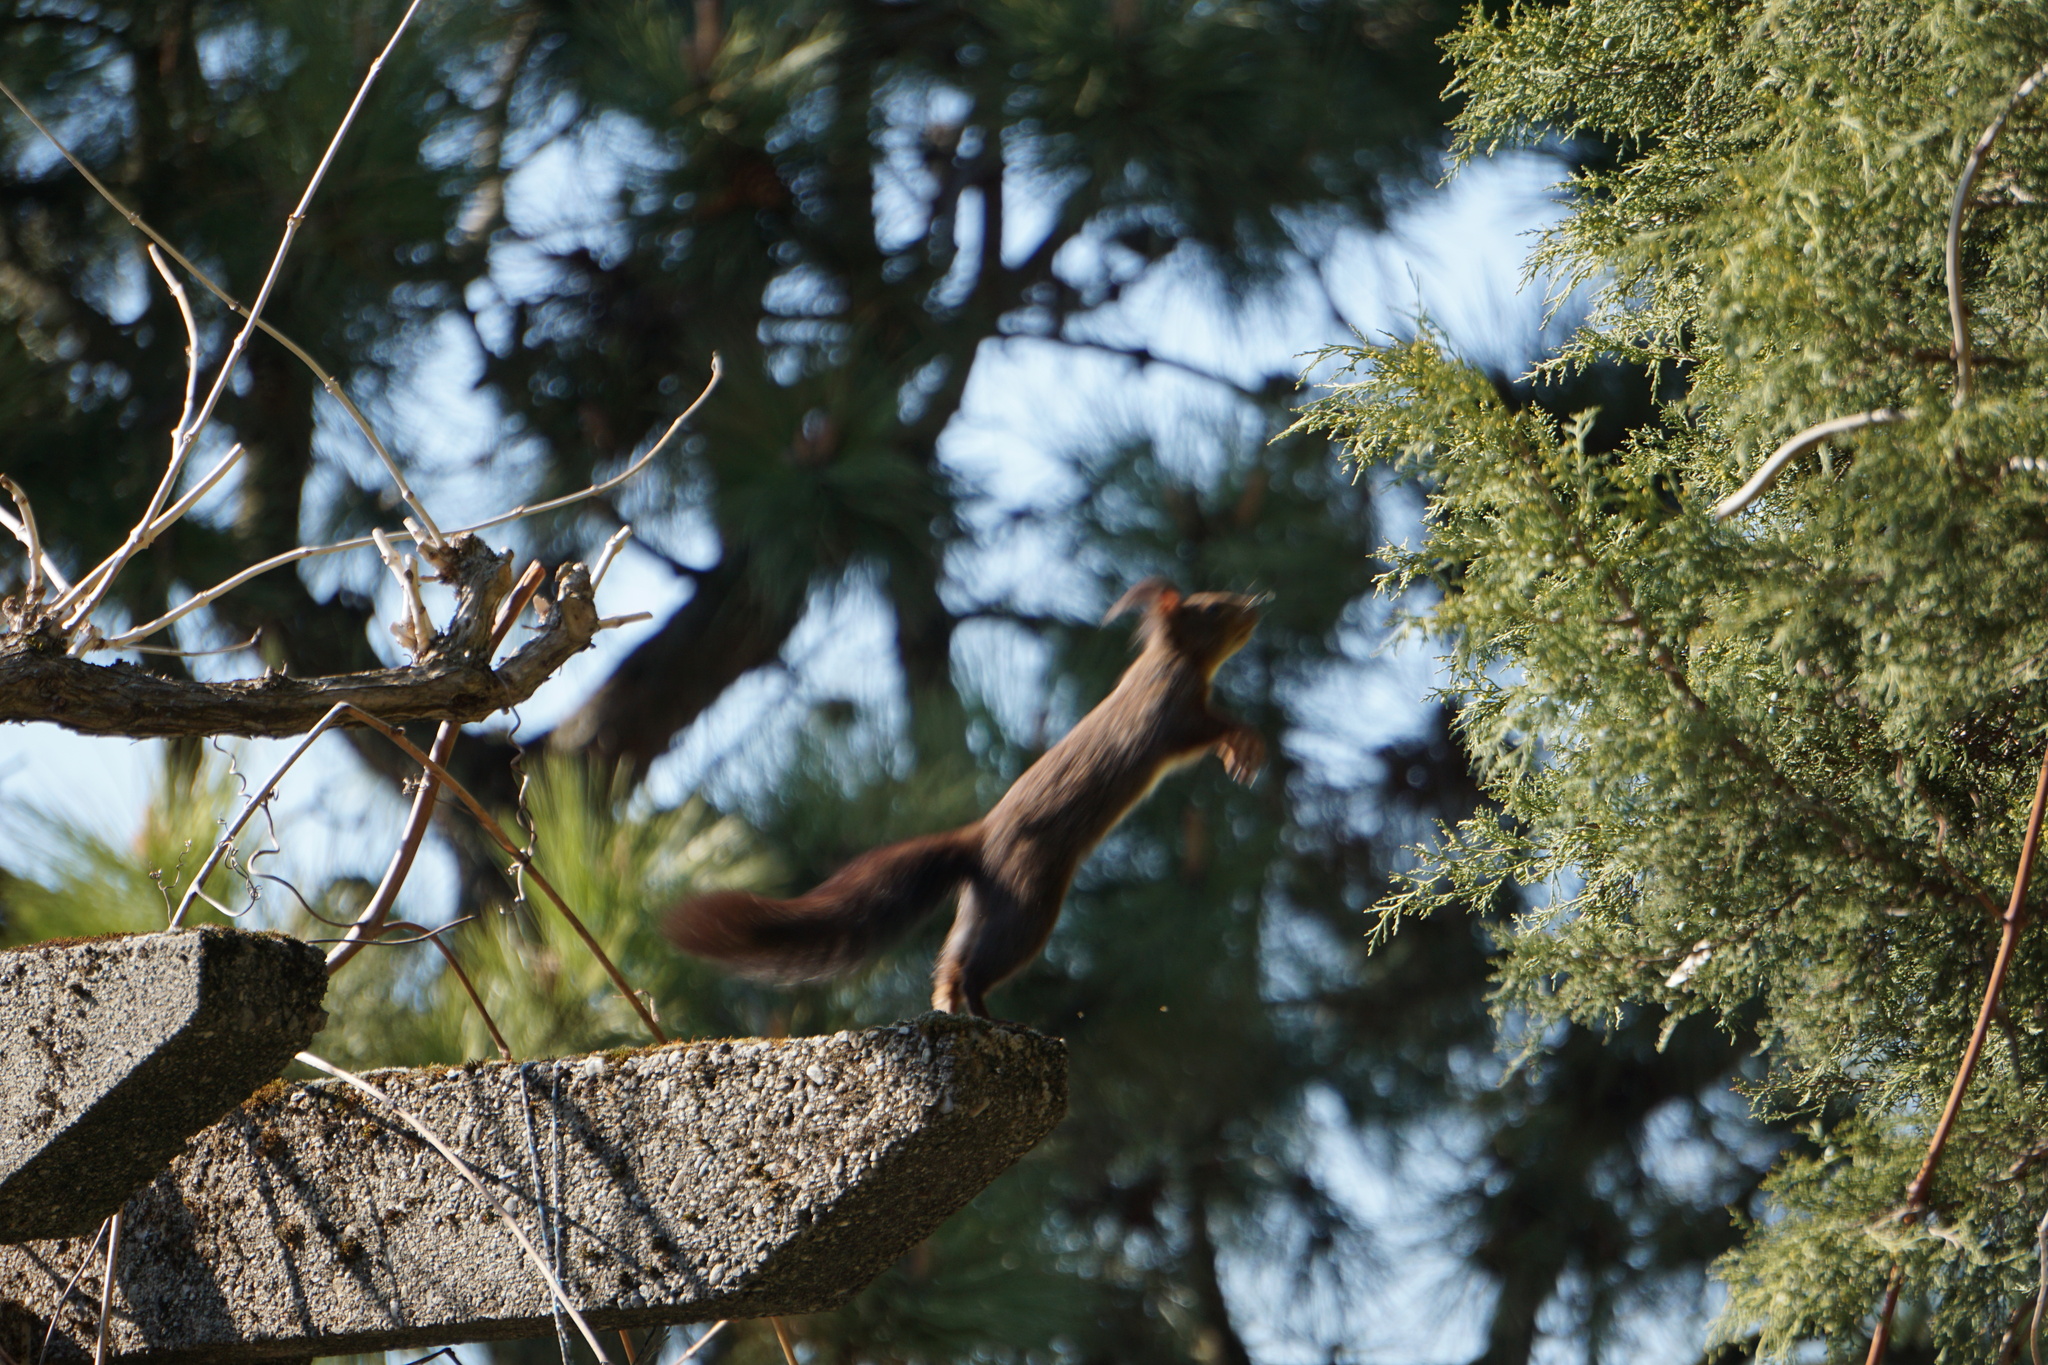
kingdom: Animalia
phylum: Chordata
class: Mammalia
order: Rodentia
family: Sciuridae
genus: Sciurus
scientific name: Sciurus vulgaris
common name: Eurasian red squirrel
